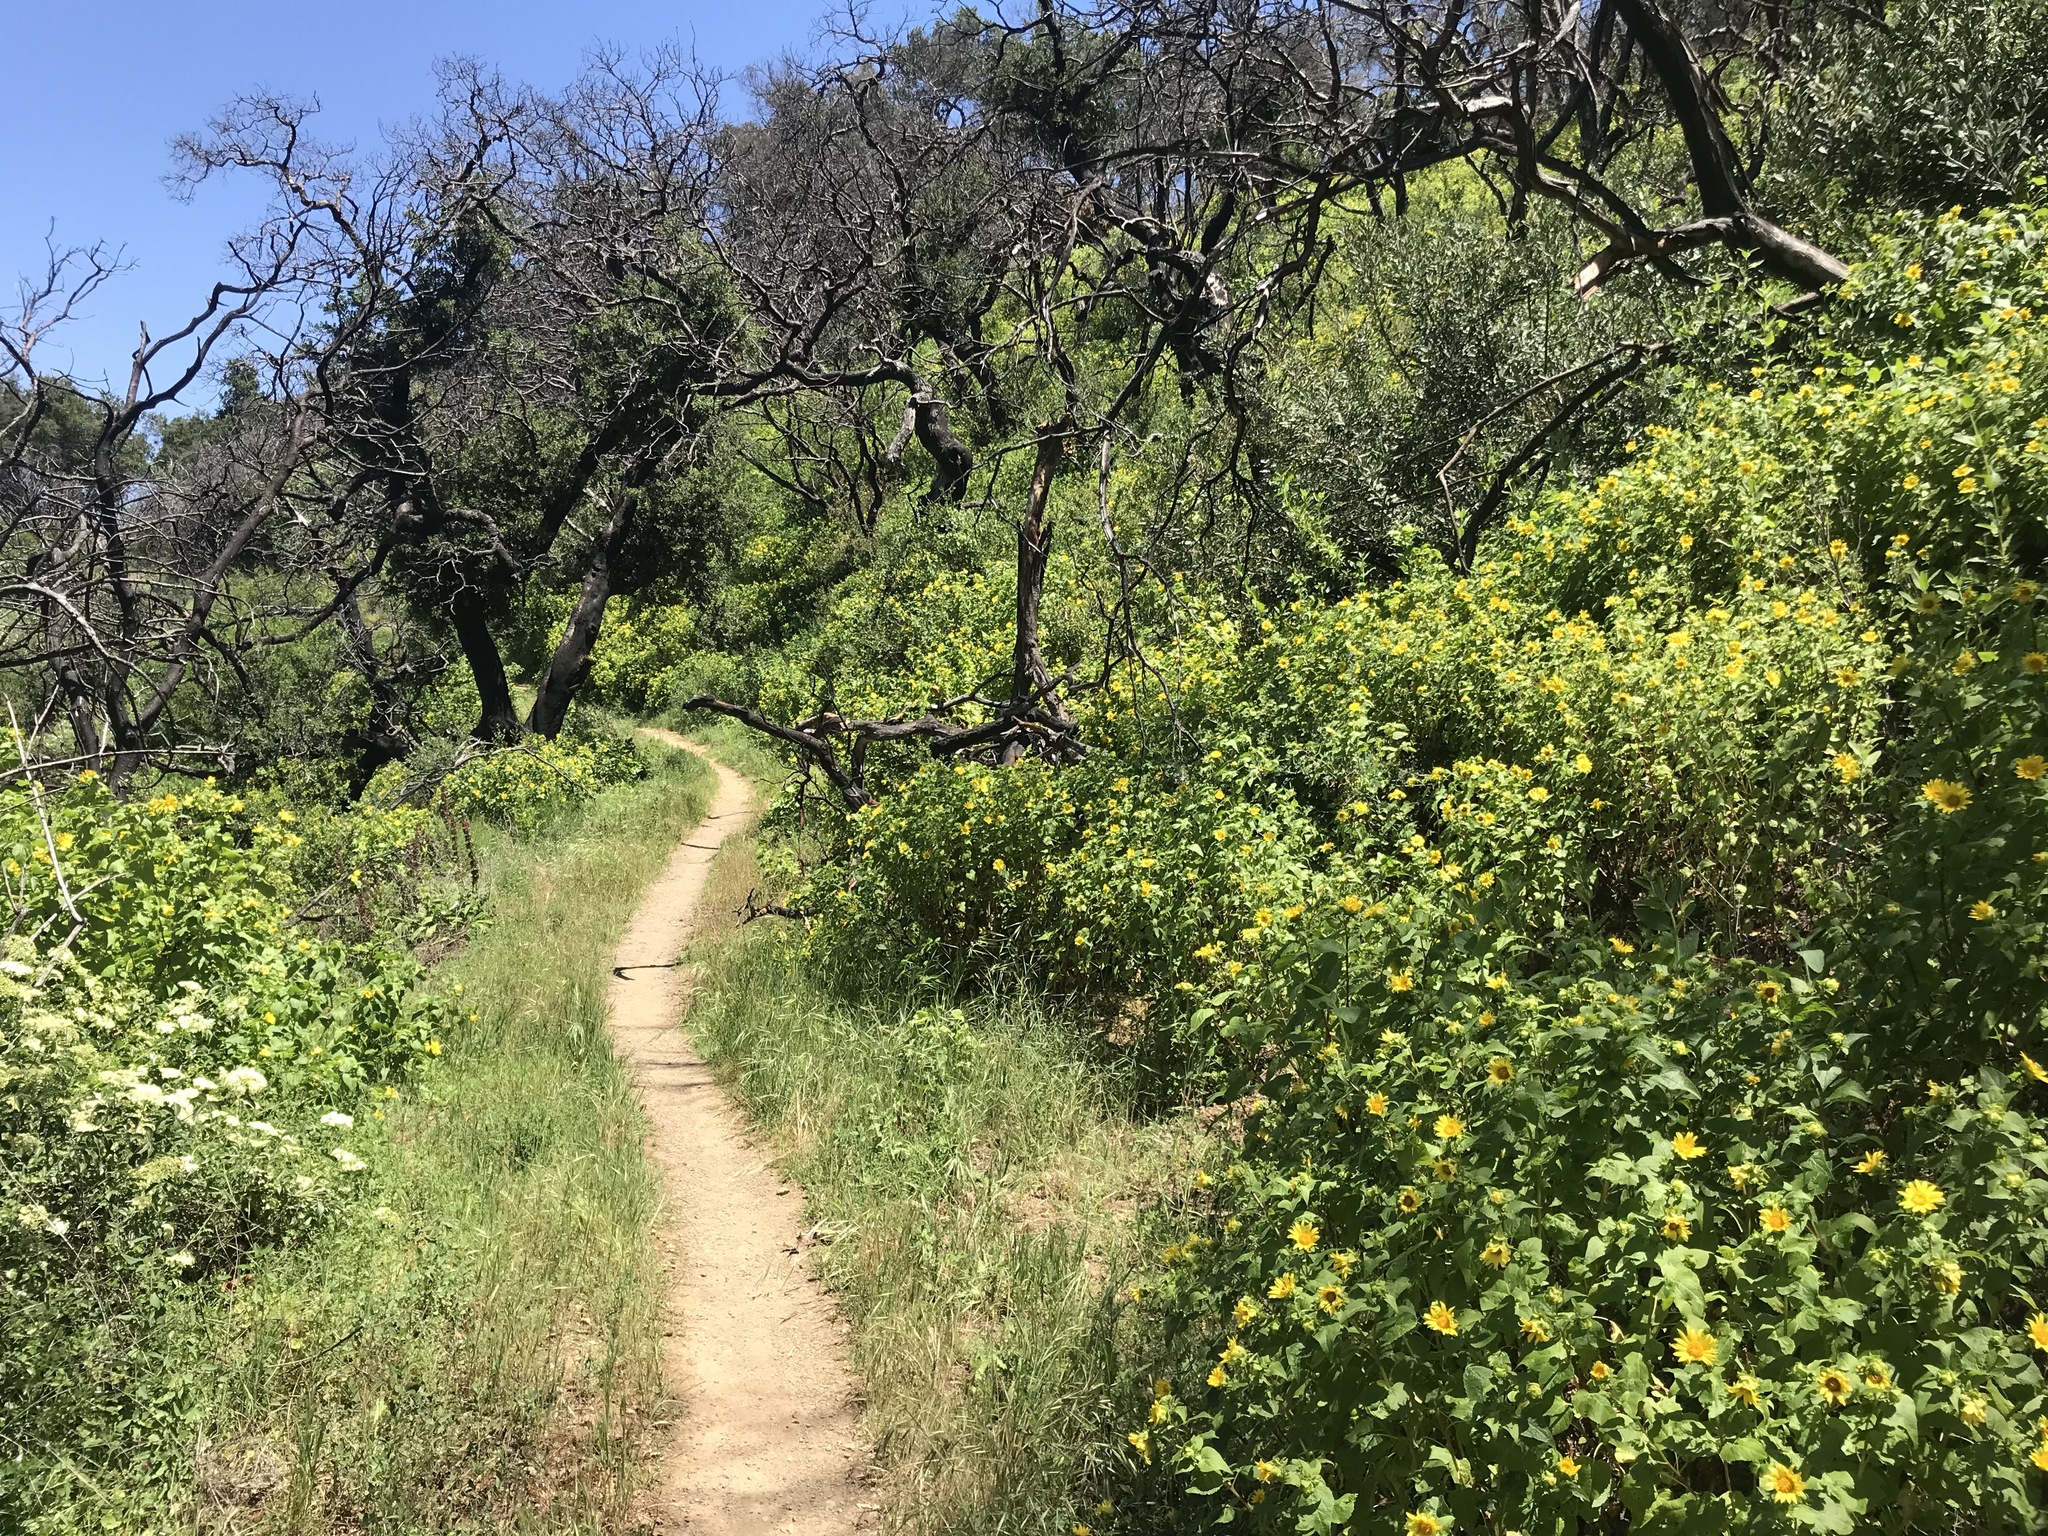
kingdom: Plantae
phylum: Tracheophyta
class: Magnoliopsida
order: Asterales
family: Asteraceae
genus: Venegasia
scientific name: Venegasia carpesioides
